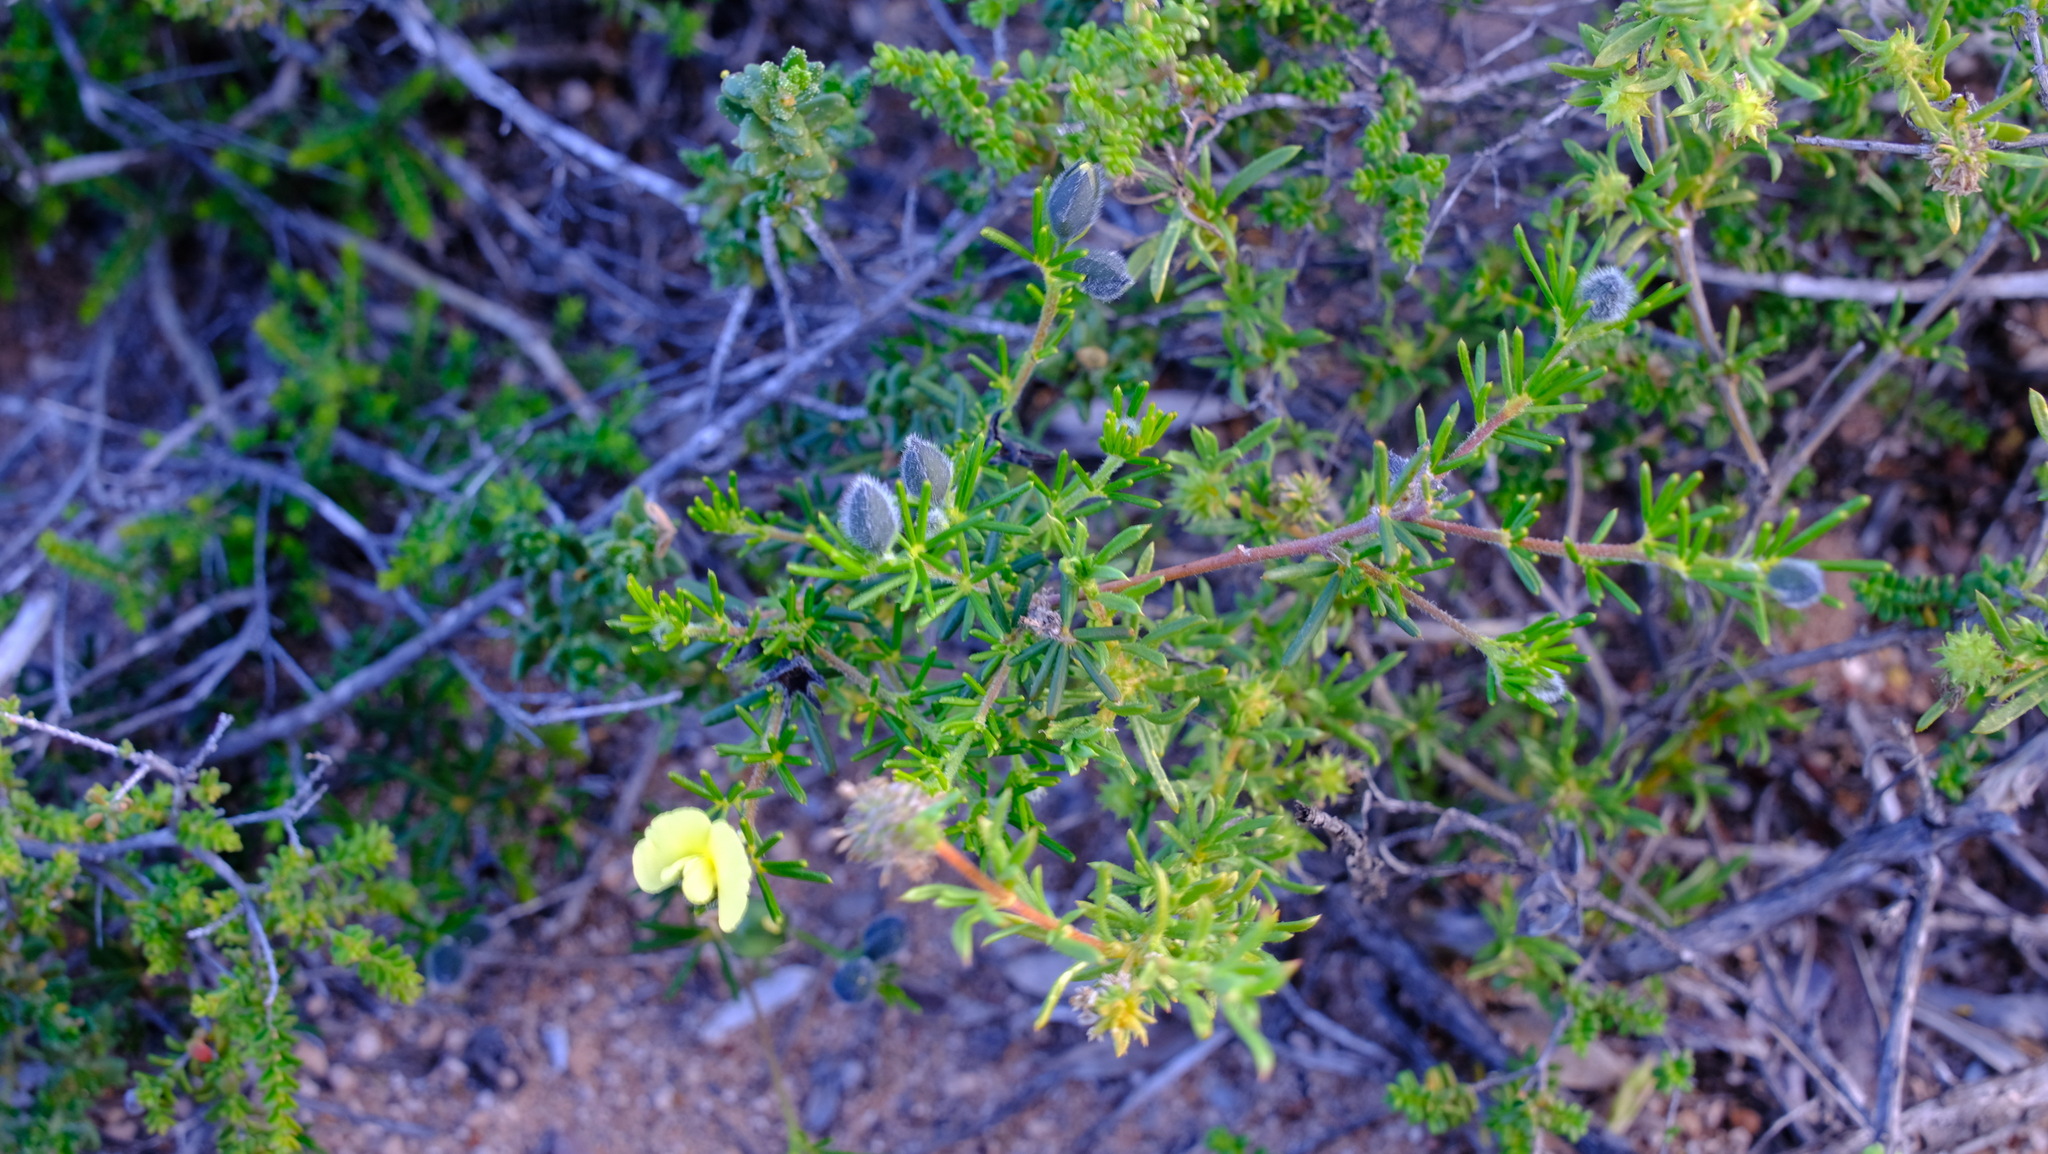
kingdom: Plantae
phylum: Tracheophyta
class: Magnoliopsida
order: Fabales
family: Fabaceae
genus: Gompholobium
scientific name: Gompholobium tomentosum
